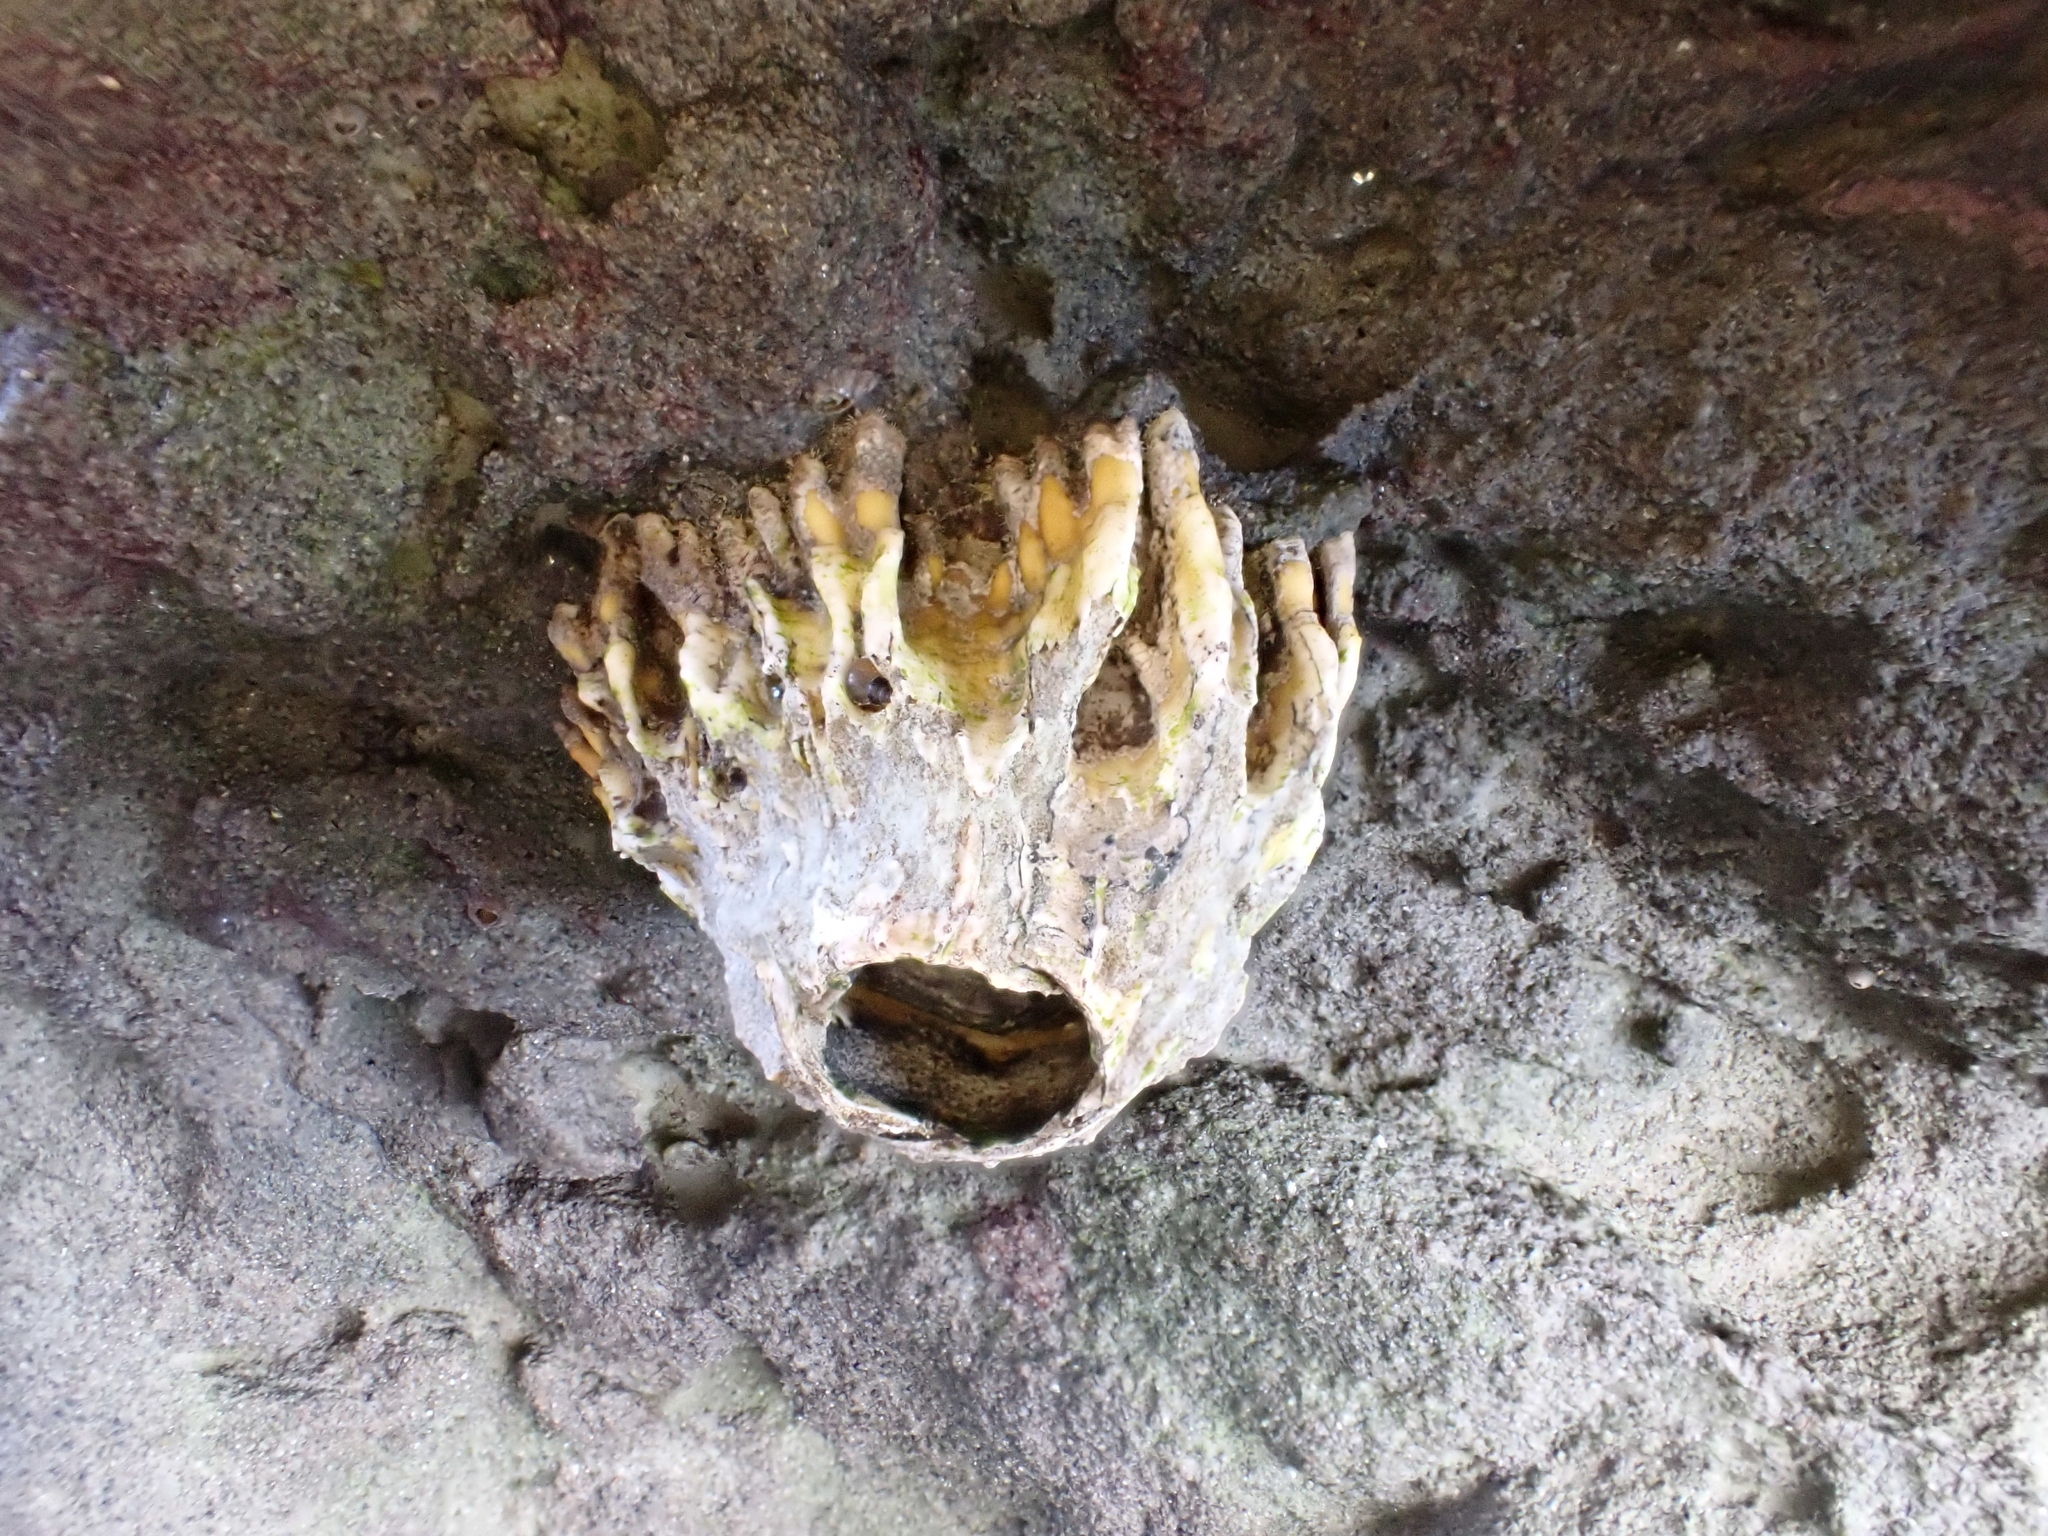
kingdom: Animalia
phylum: Arthropoda
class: Maxillopoda
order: Sessilia
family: Tetraclitidae
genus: Epopella
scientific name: Epopella plicata
